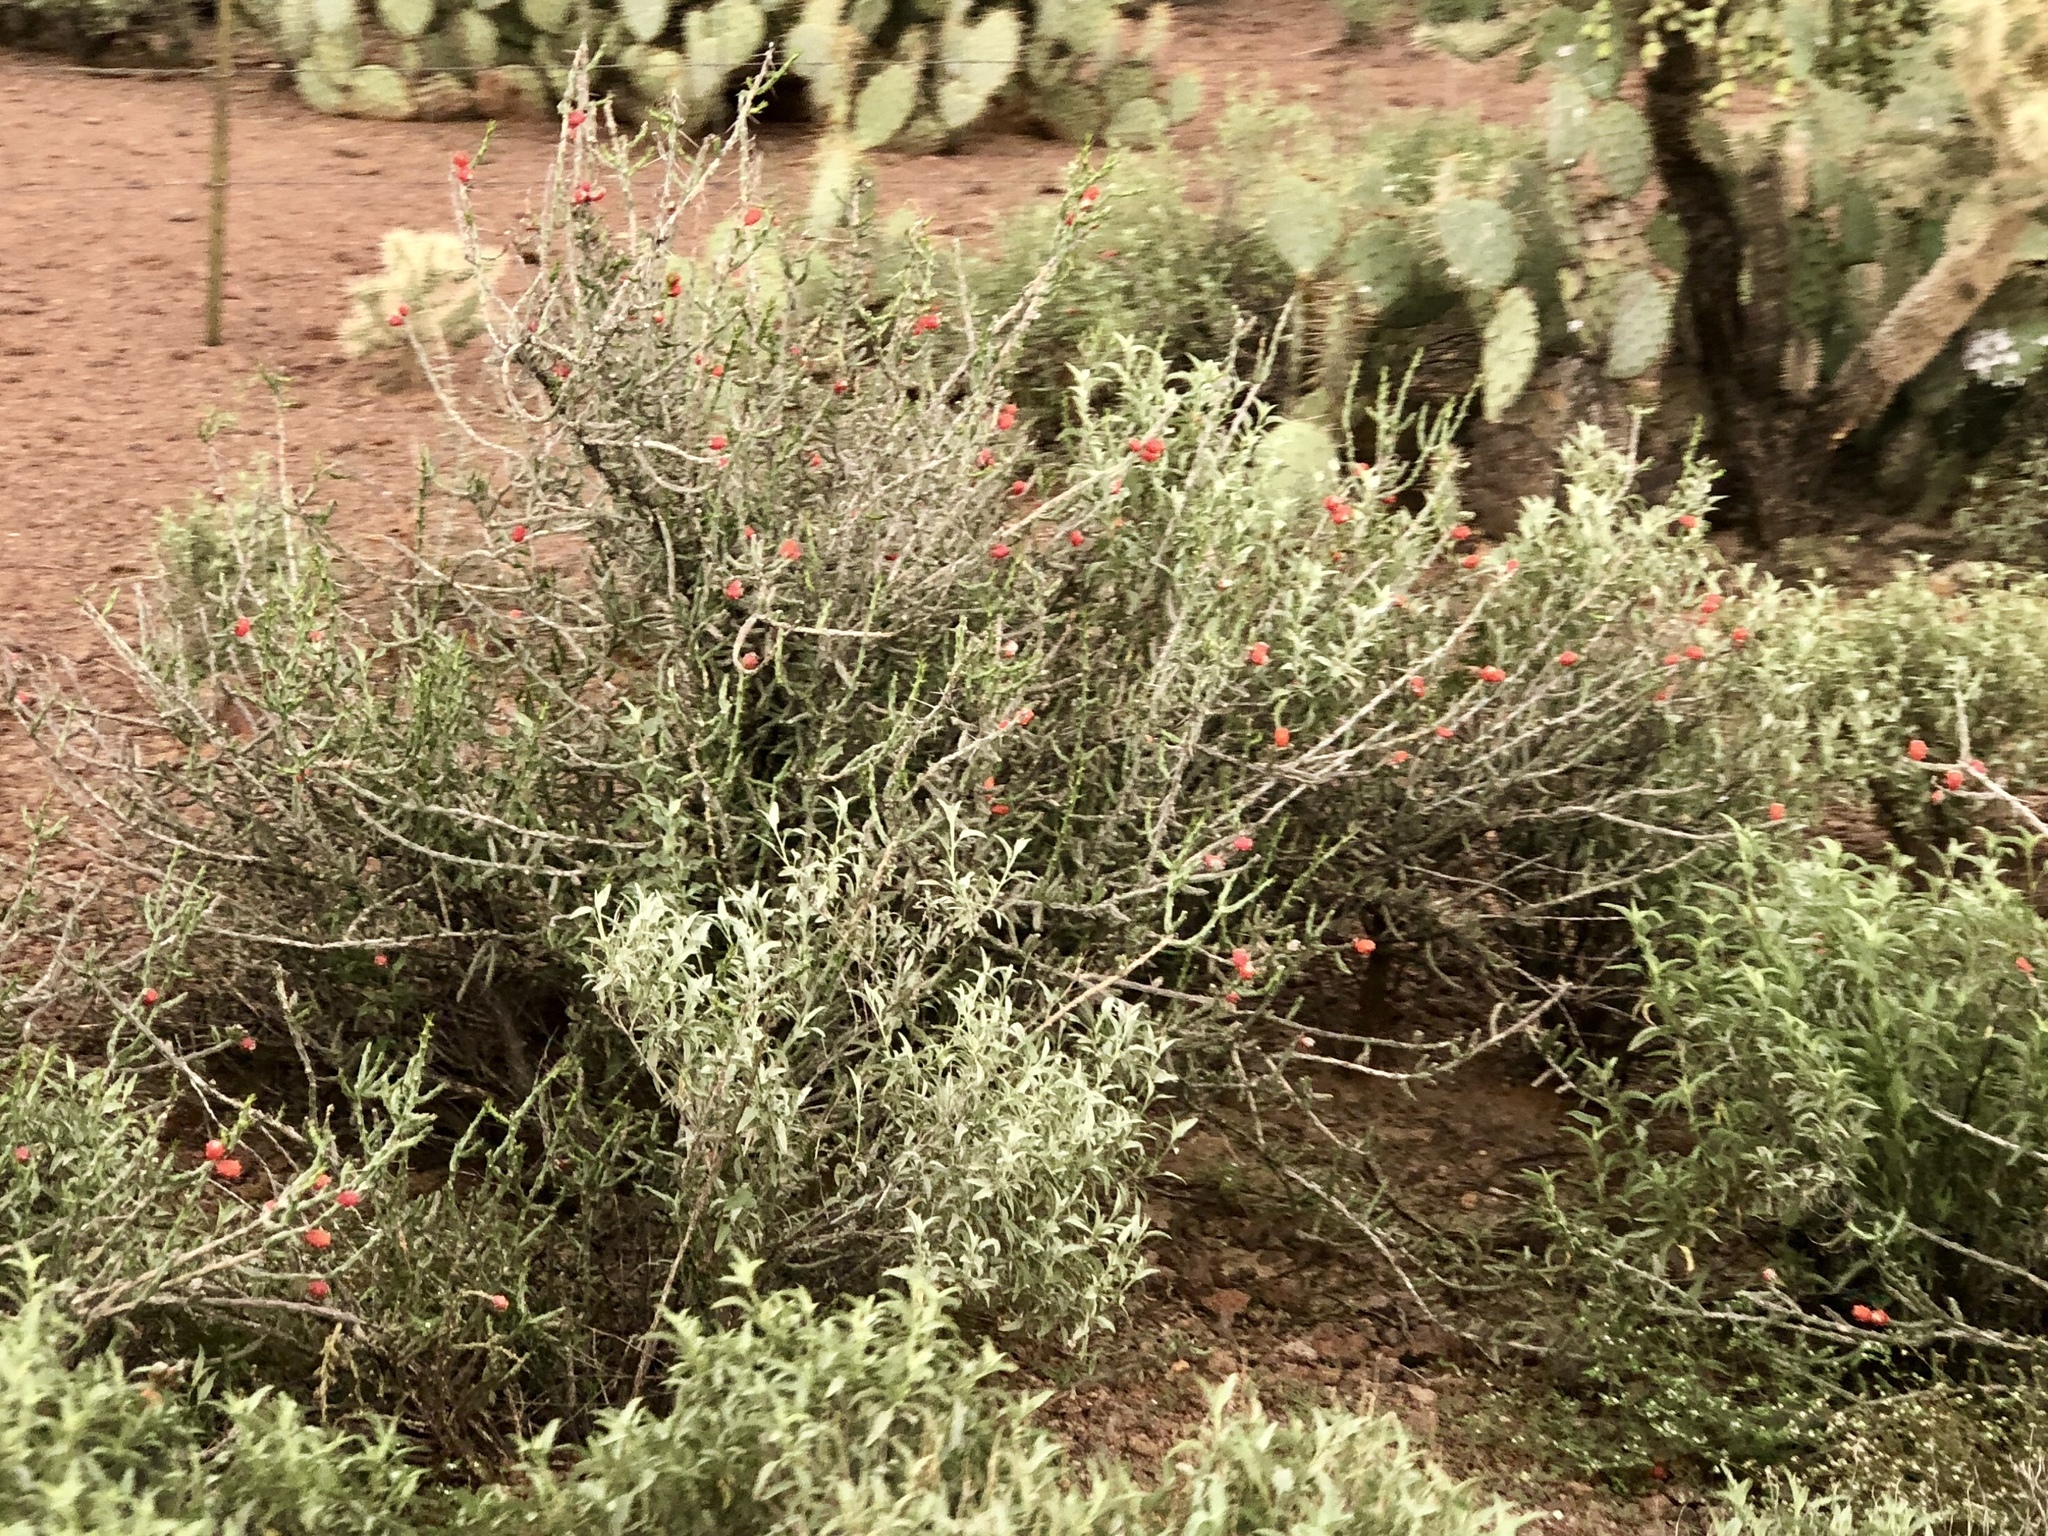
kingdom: Plantae
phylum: Tracheophyta
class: Magnoliopsida
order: Caryophyllales
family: Cactaceae
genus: Cylindropuntia
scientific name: Cylindropuntia leptocaulis
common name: Christmas cactus
